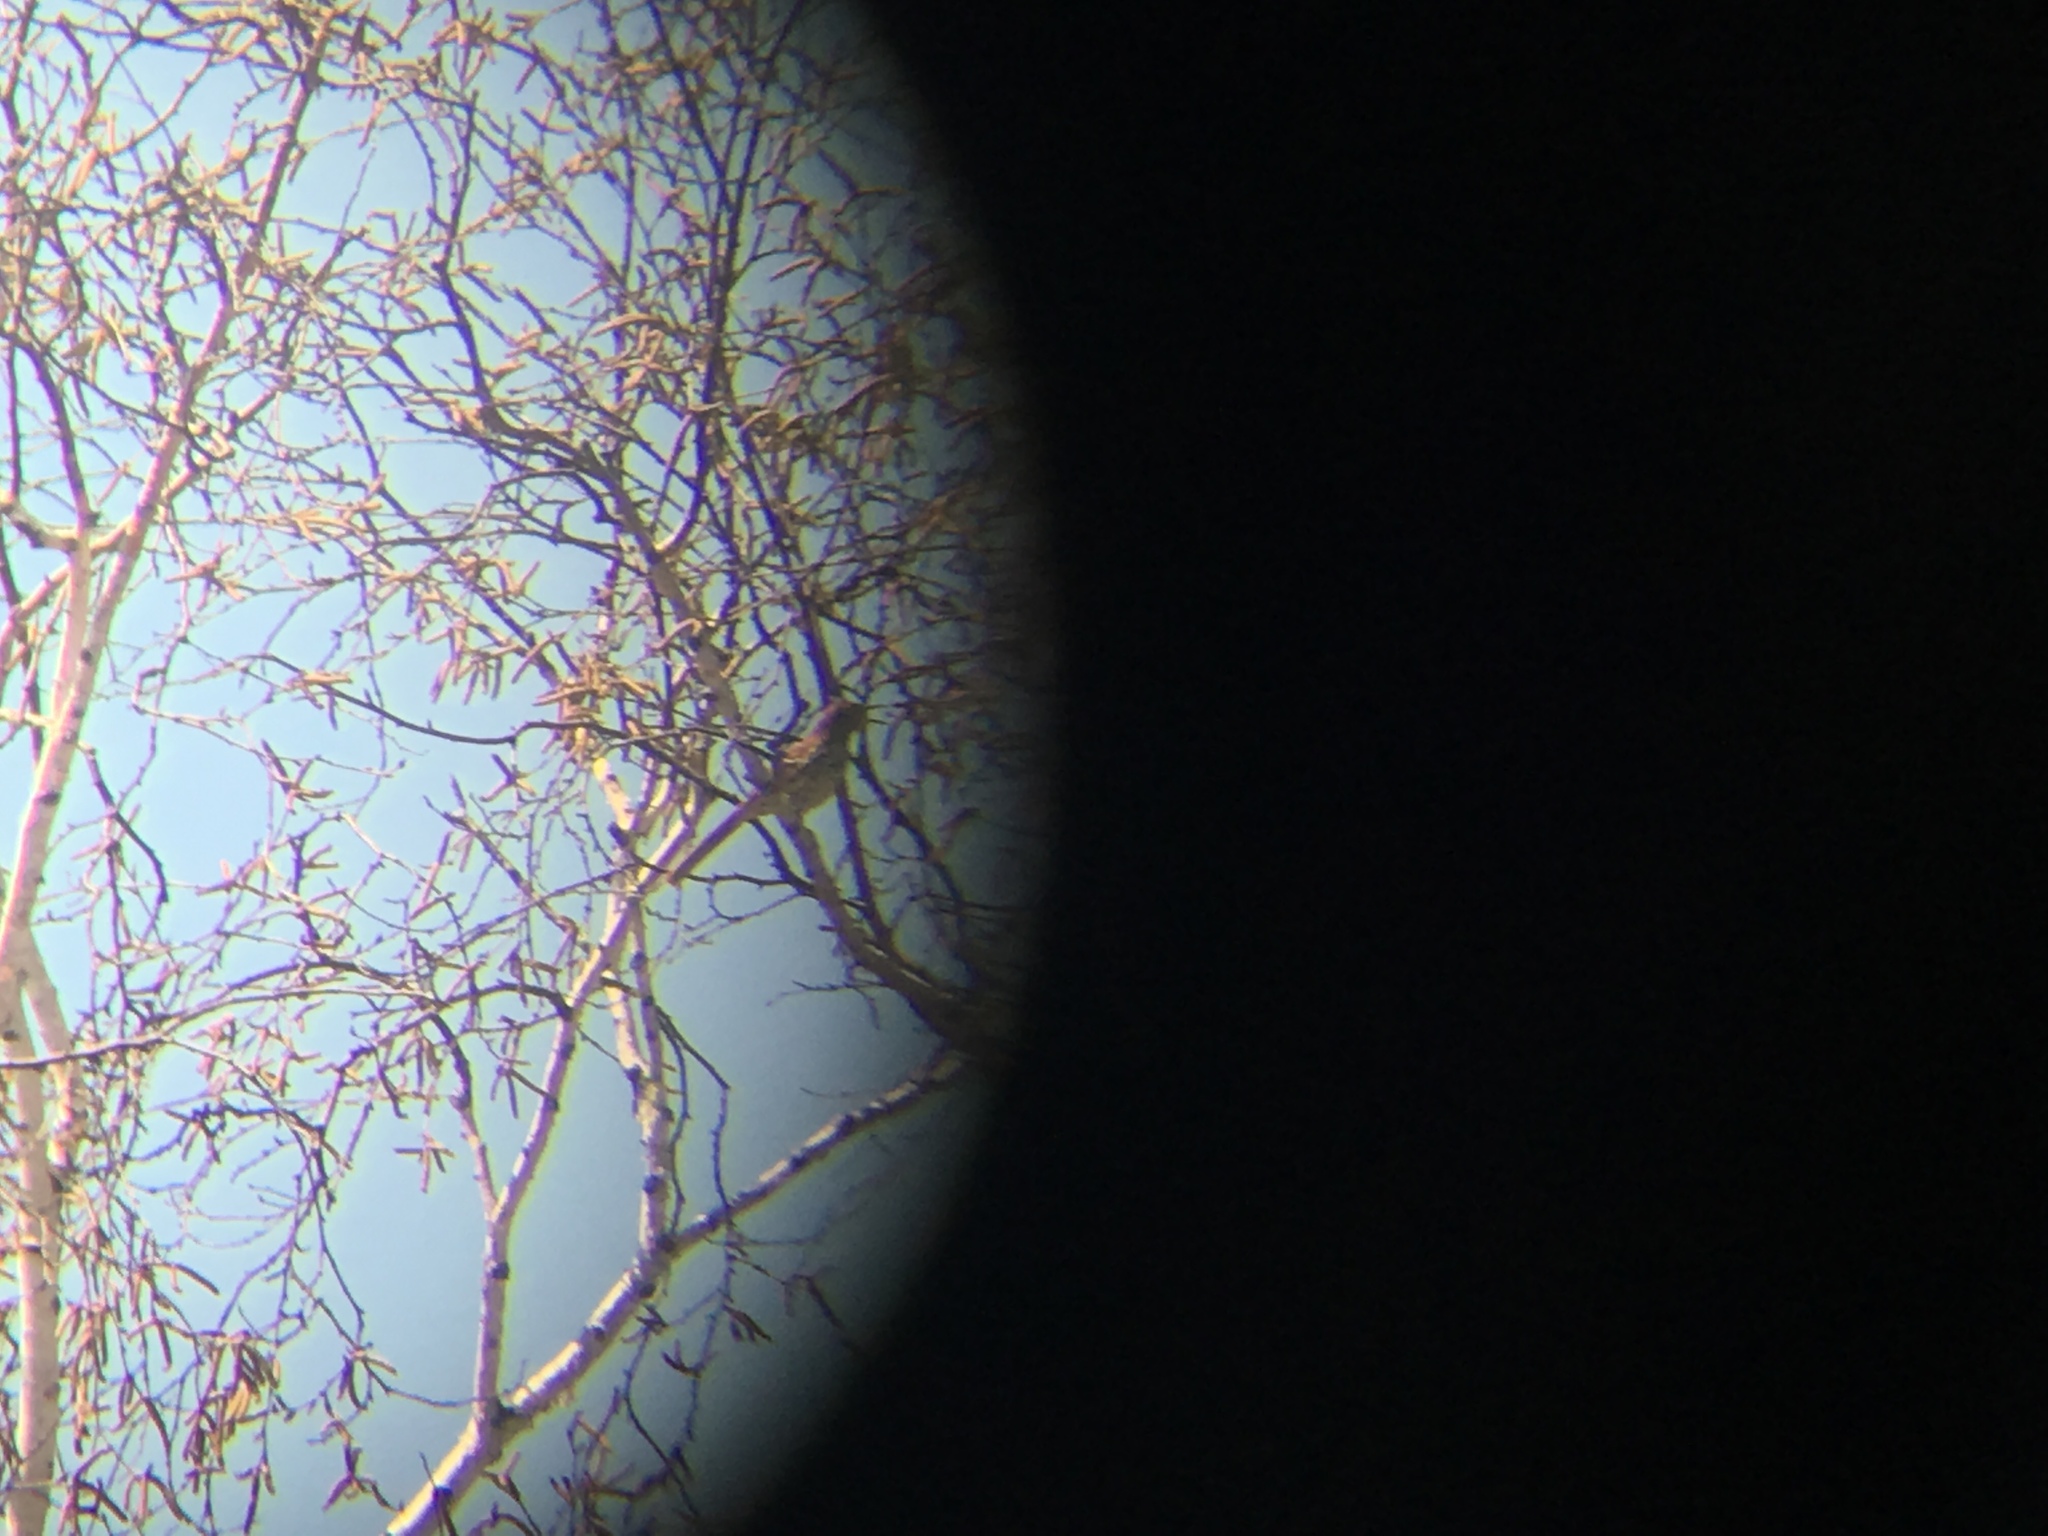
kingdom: Animalia
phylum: Chordata
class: Aves
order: Passeriformes
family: Mimidae
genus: Toxostoma
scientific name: Toxostoma rufum
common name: Brown thrasher
